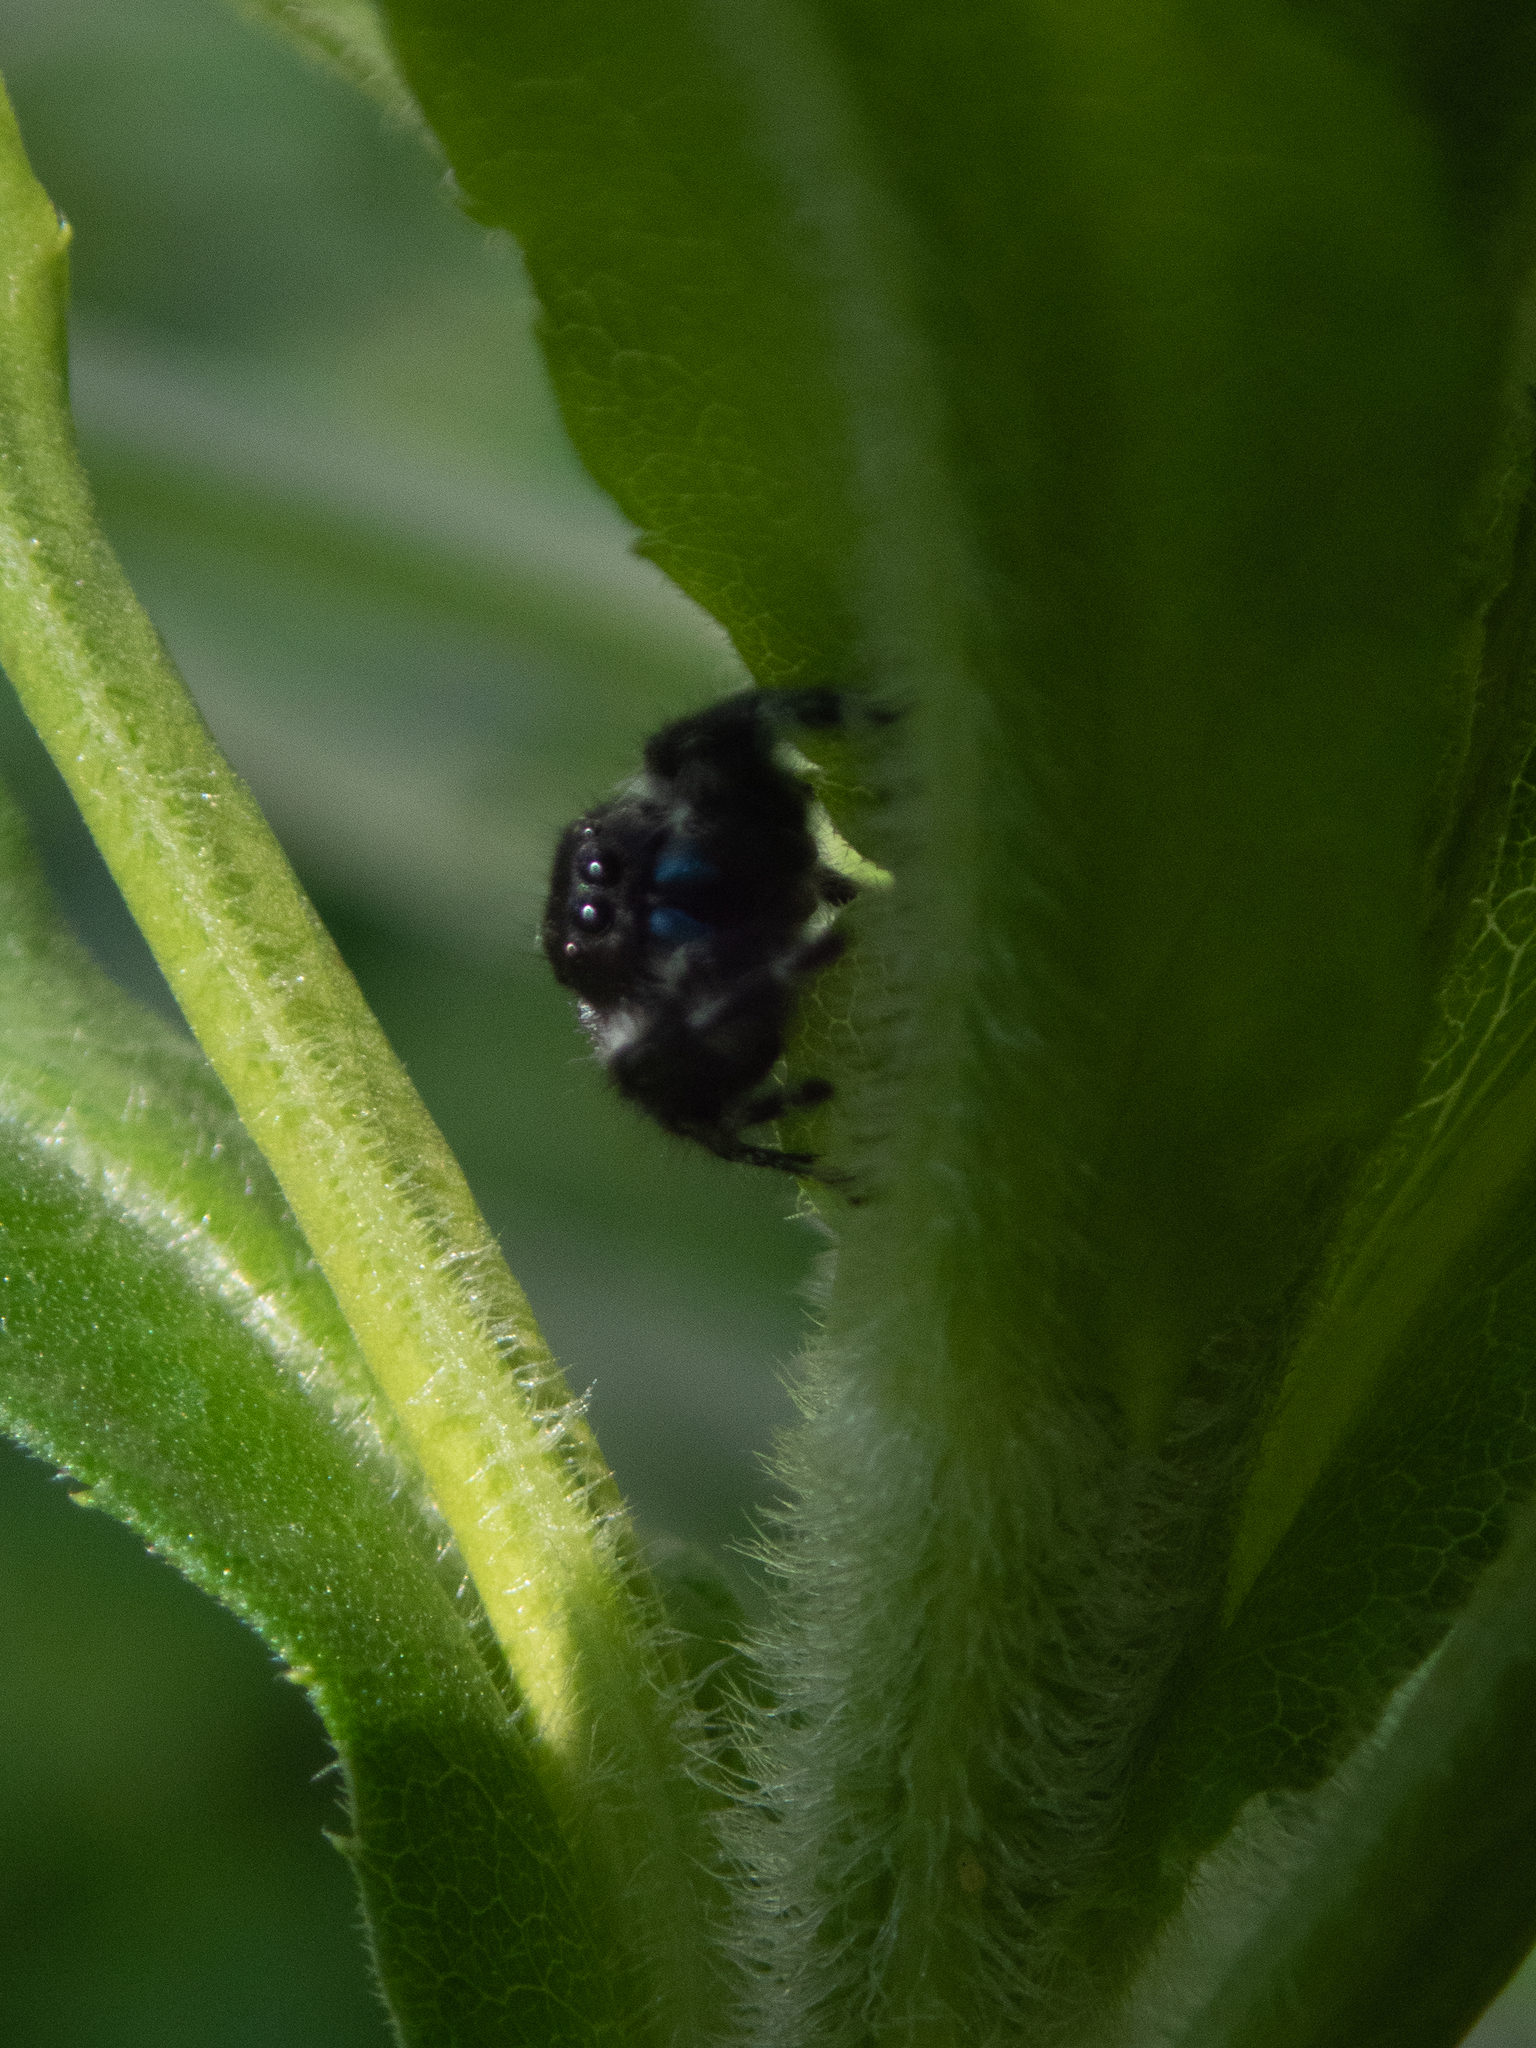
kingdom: Animalia
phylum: Arthropoda
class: Arachnida
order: Araneae
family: Salticidae
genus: Phidippus
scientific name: Phidippus audax
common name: Bold jumper
